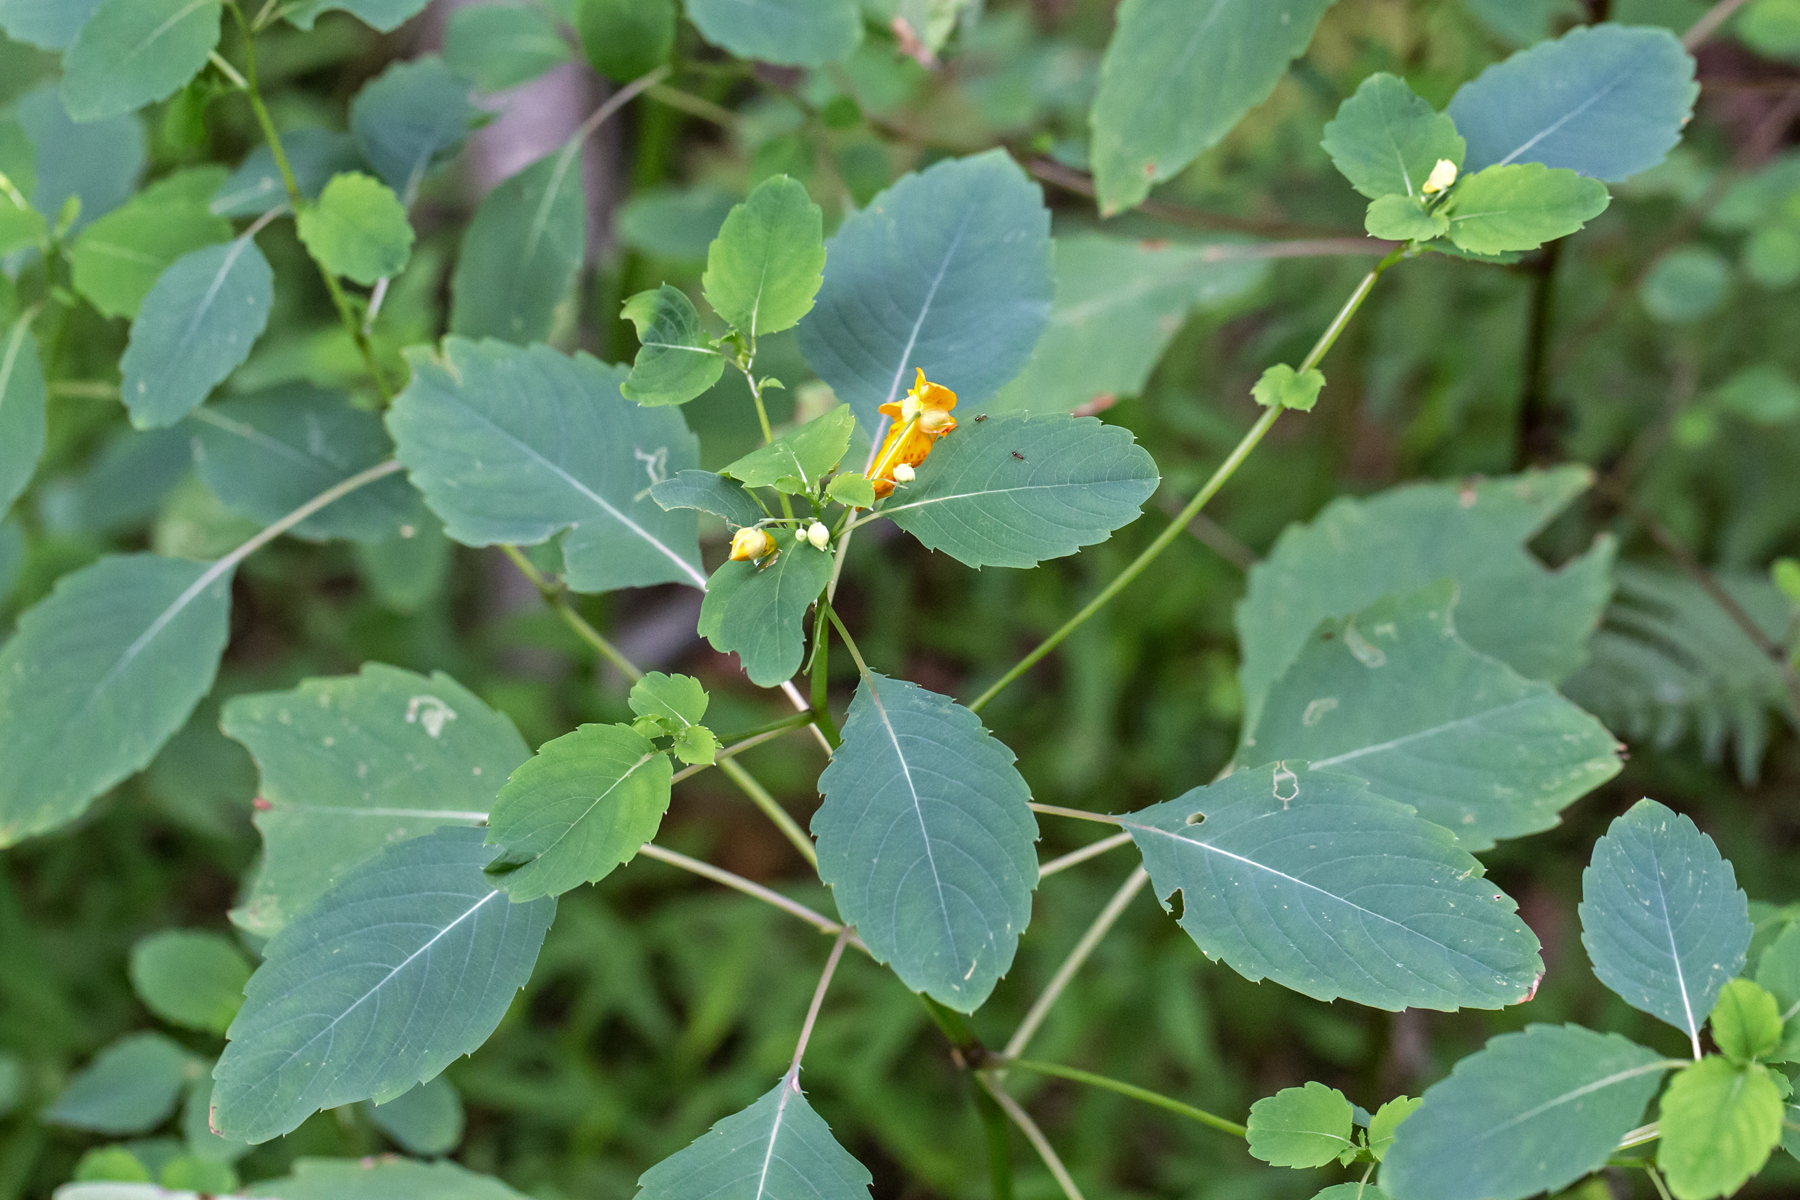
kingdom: Plantae
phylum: Tracheophyta
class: Magnoliopsida
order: Ericales
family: Balsaminaceae
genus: Impatiens
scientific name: Impatiens capensis
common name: Orange balsam
